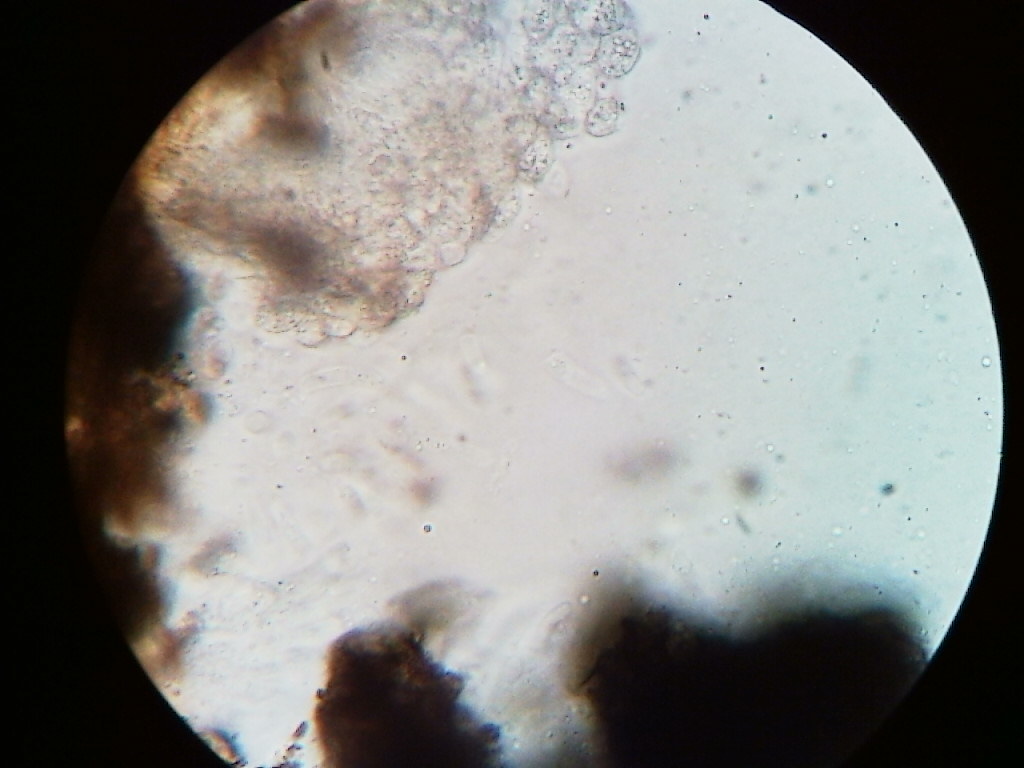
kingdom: Fungi
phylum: Ascomycota
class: Sordariomycetes
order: Xylariales
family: Diatrypaceae
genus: Diatrype
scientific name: Diatrype decorticata
